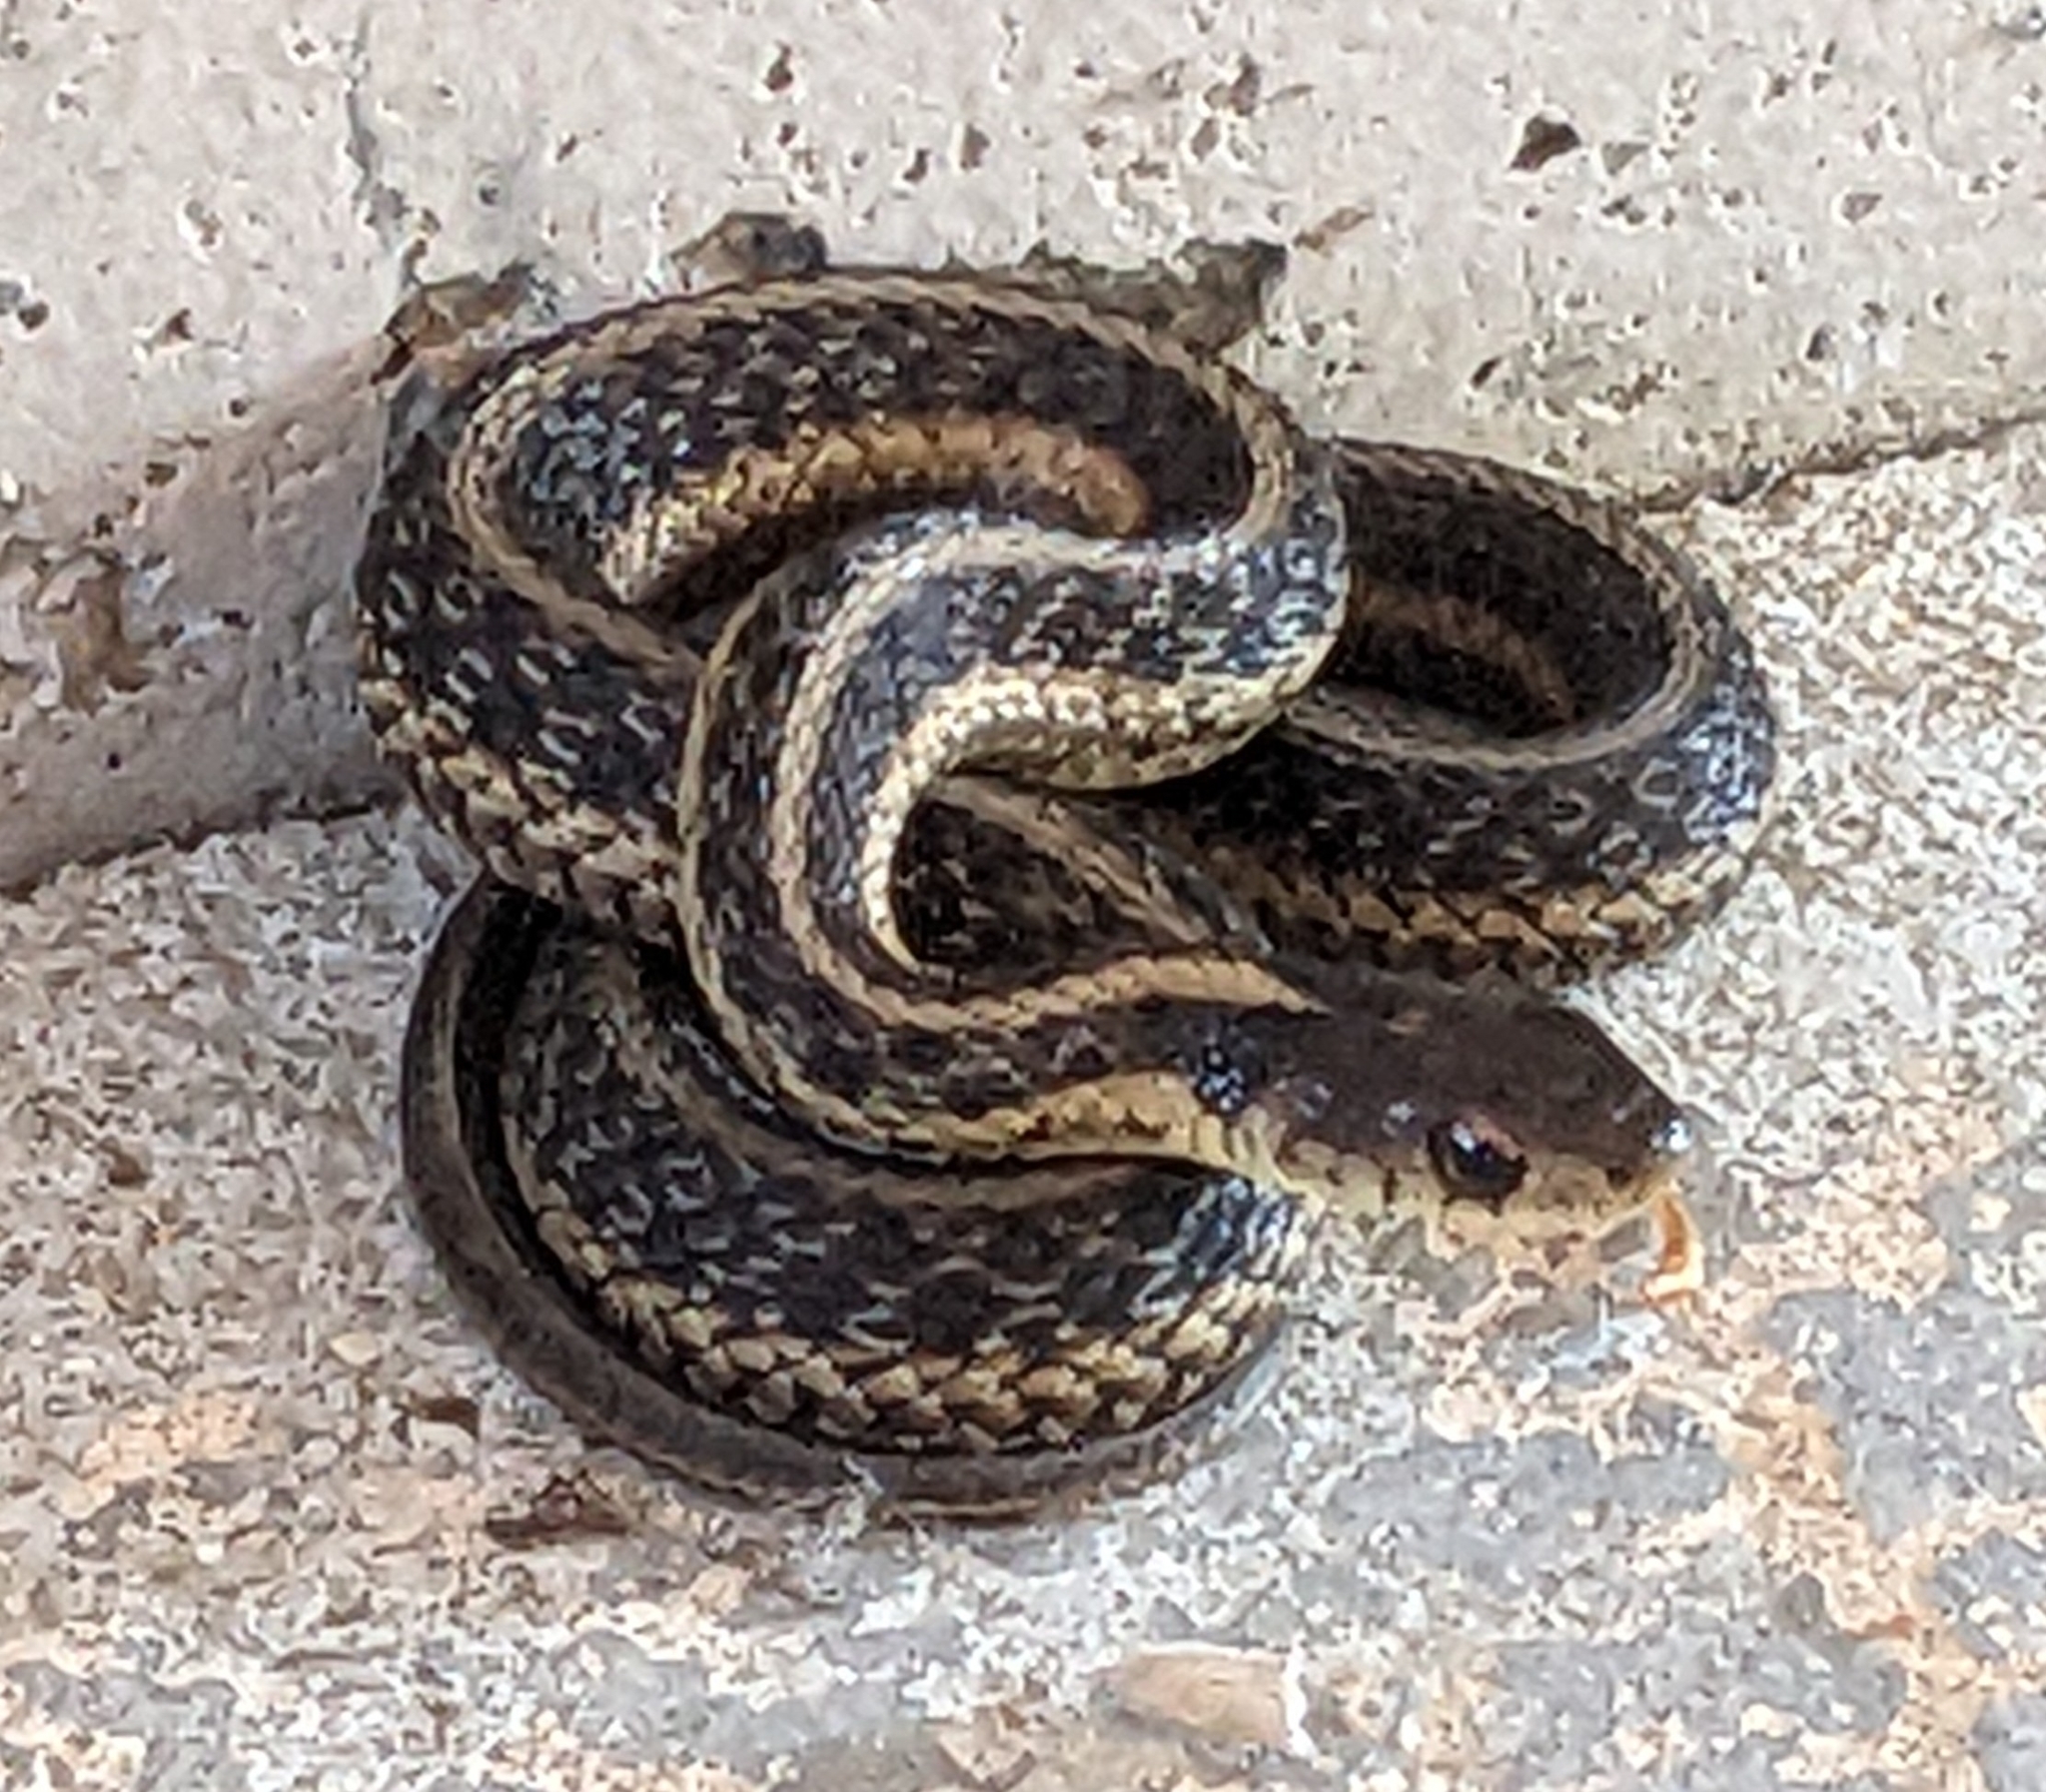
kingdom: Animalia
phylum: Chordata
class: Squamata
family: Colubridae
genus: Thamnophis
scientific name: Thamnophis sirtalis
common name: Common garter snake
